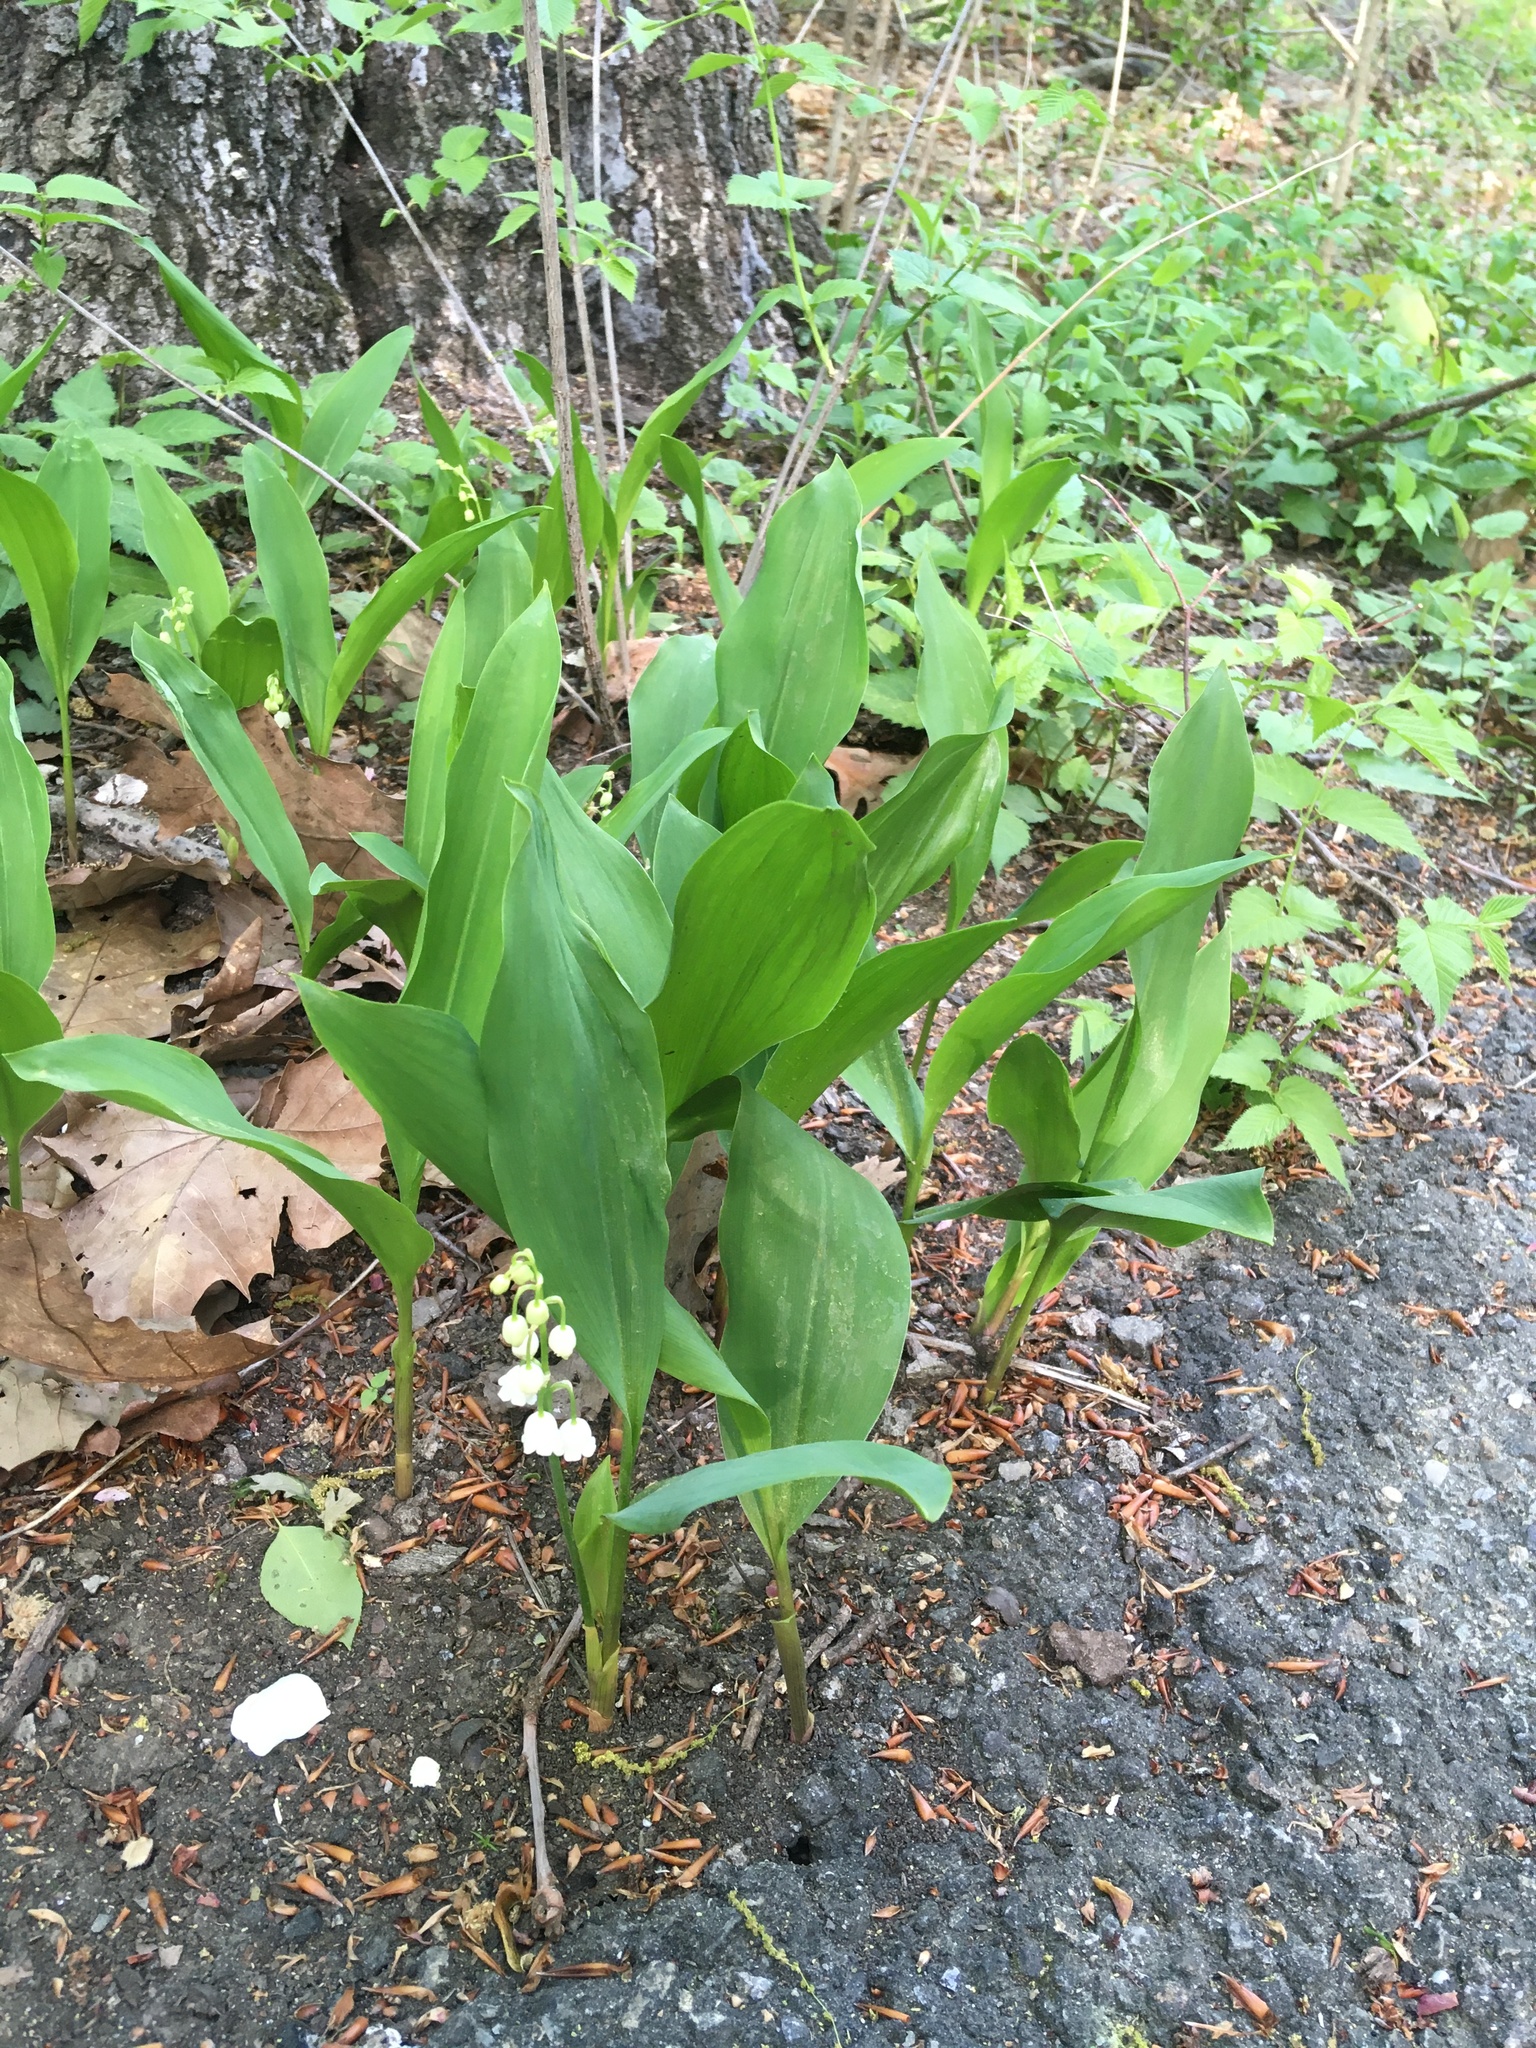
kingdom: Plantae
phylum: Tracheophyta
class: Liliopsida
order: Asparagales
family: Asparagaceae
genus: Convallaria
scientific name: Convallaria majalis
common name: Lily-of-the-valley
